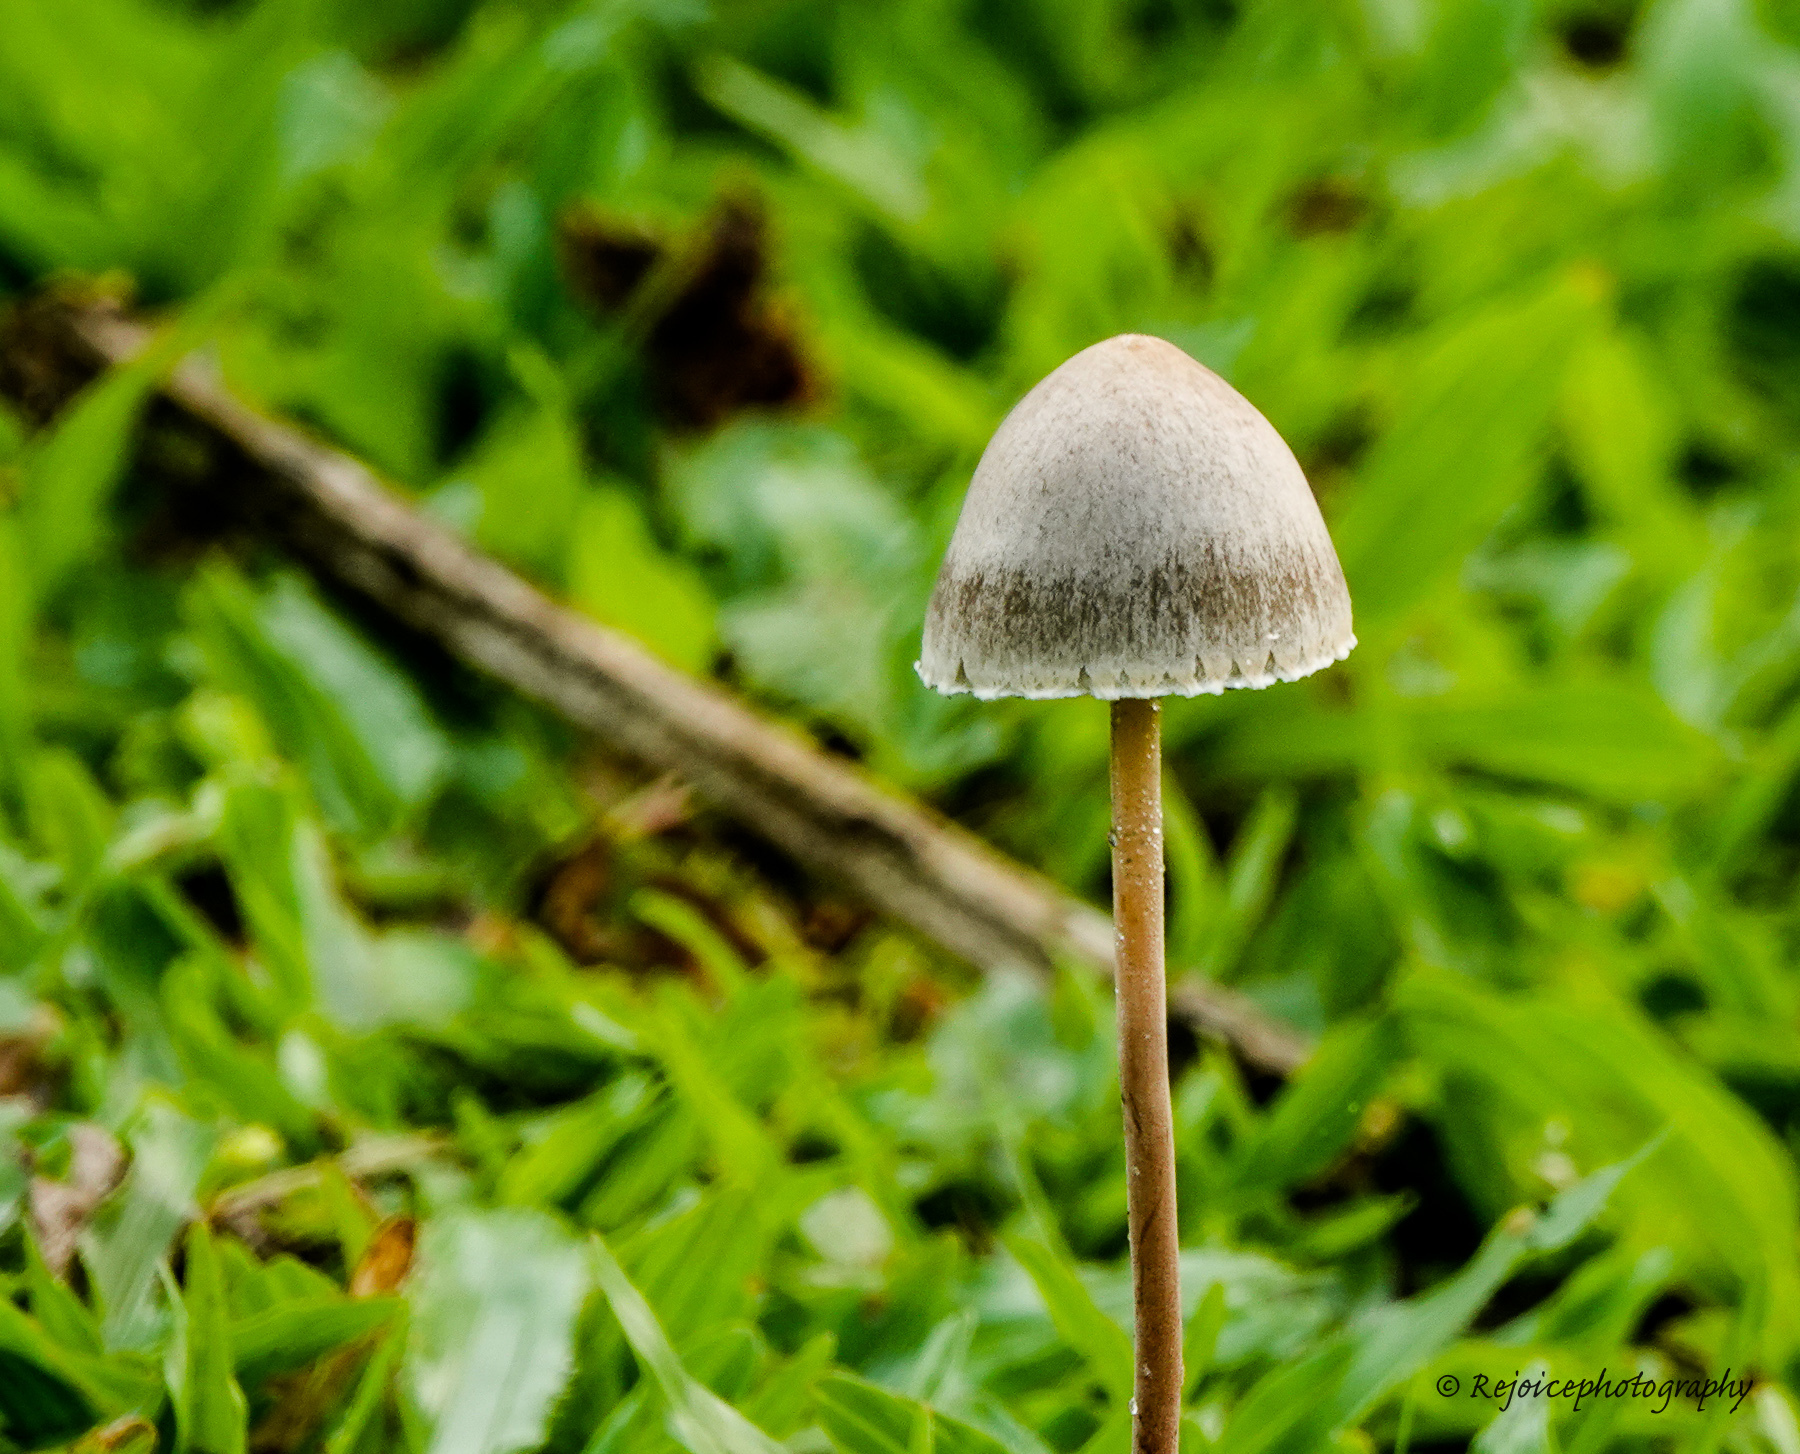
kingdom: Fungi
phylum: Basidiomycota
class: Agaricomycetes
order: Agaricales
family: Bolbitiaceae
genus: Panaeolus
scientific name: Panaeolus papilionaceus
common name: Petticoat mottlegill
